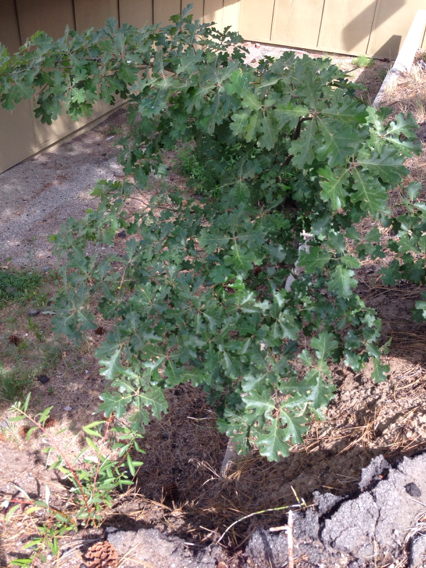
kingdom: Plantae
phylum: Tracheophyta
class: Magnoliopsida
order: Fagales
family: Fagaceae
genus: Quercus
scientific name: Quercus kelloggii
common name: California black oak
